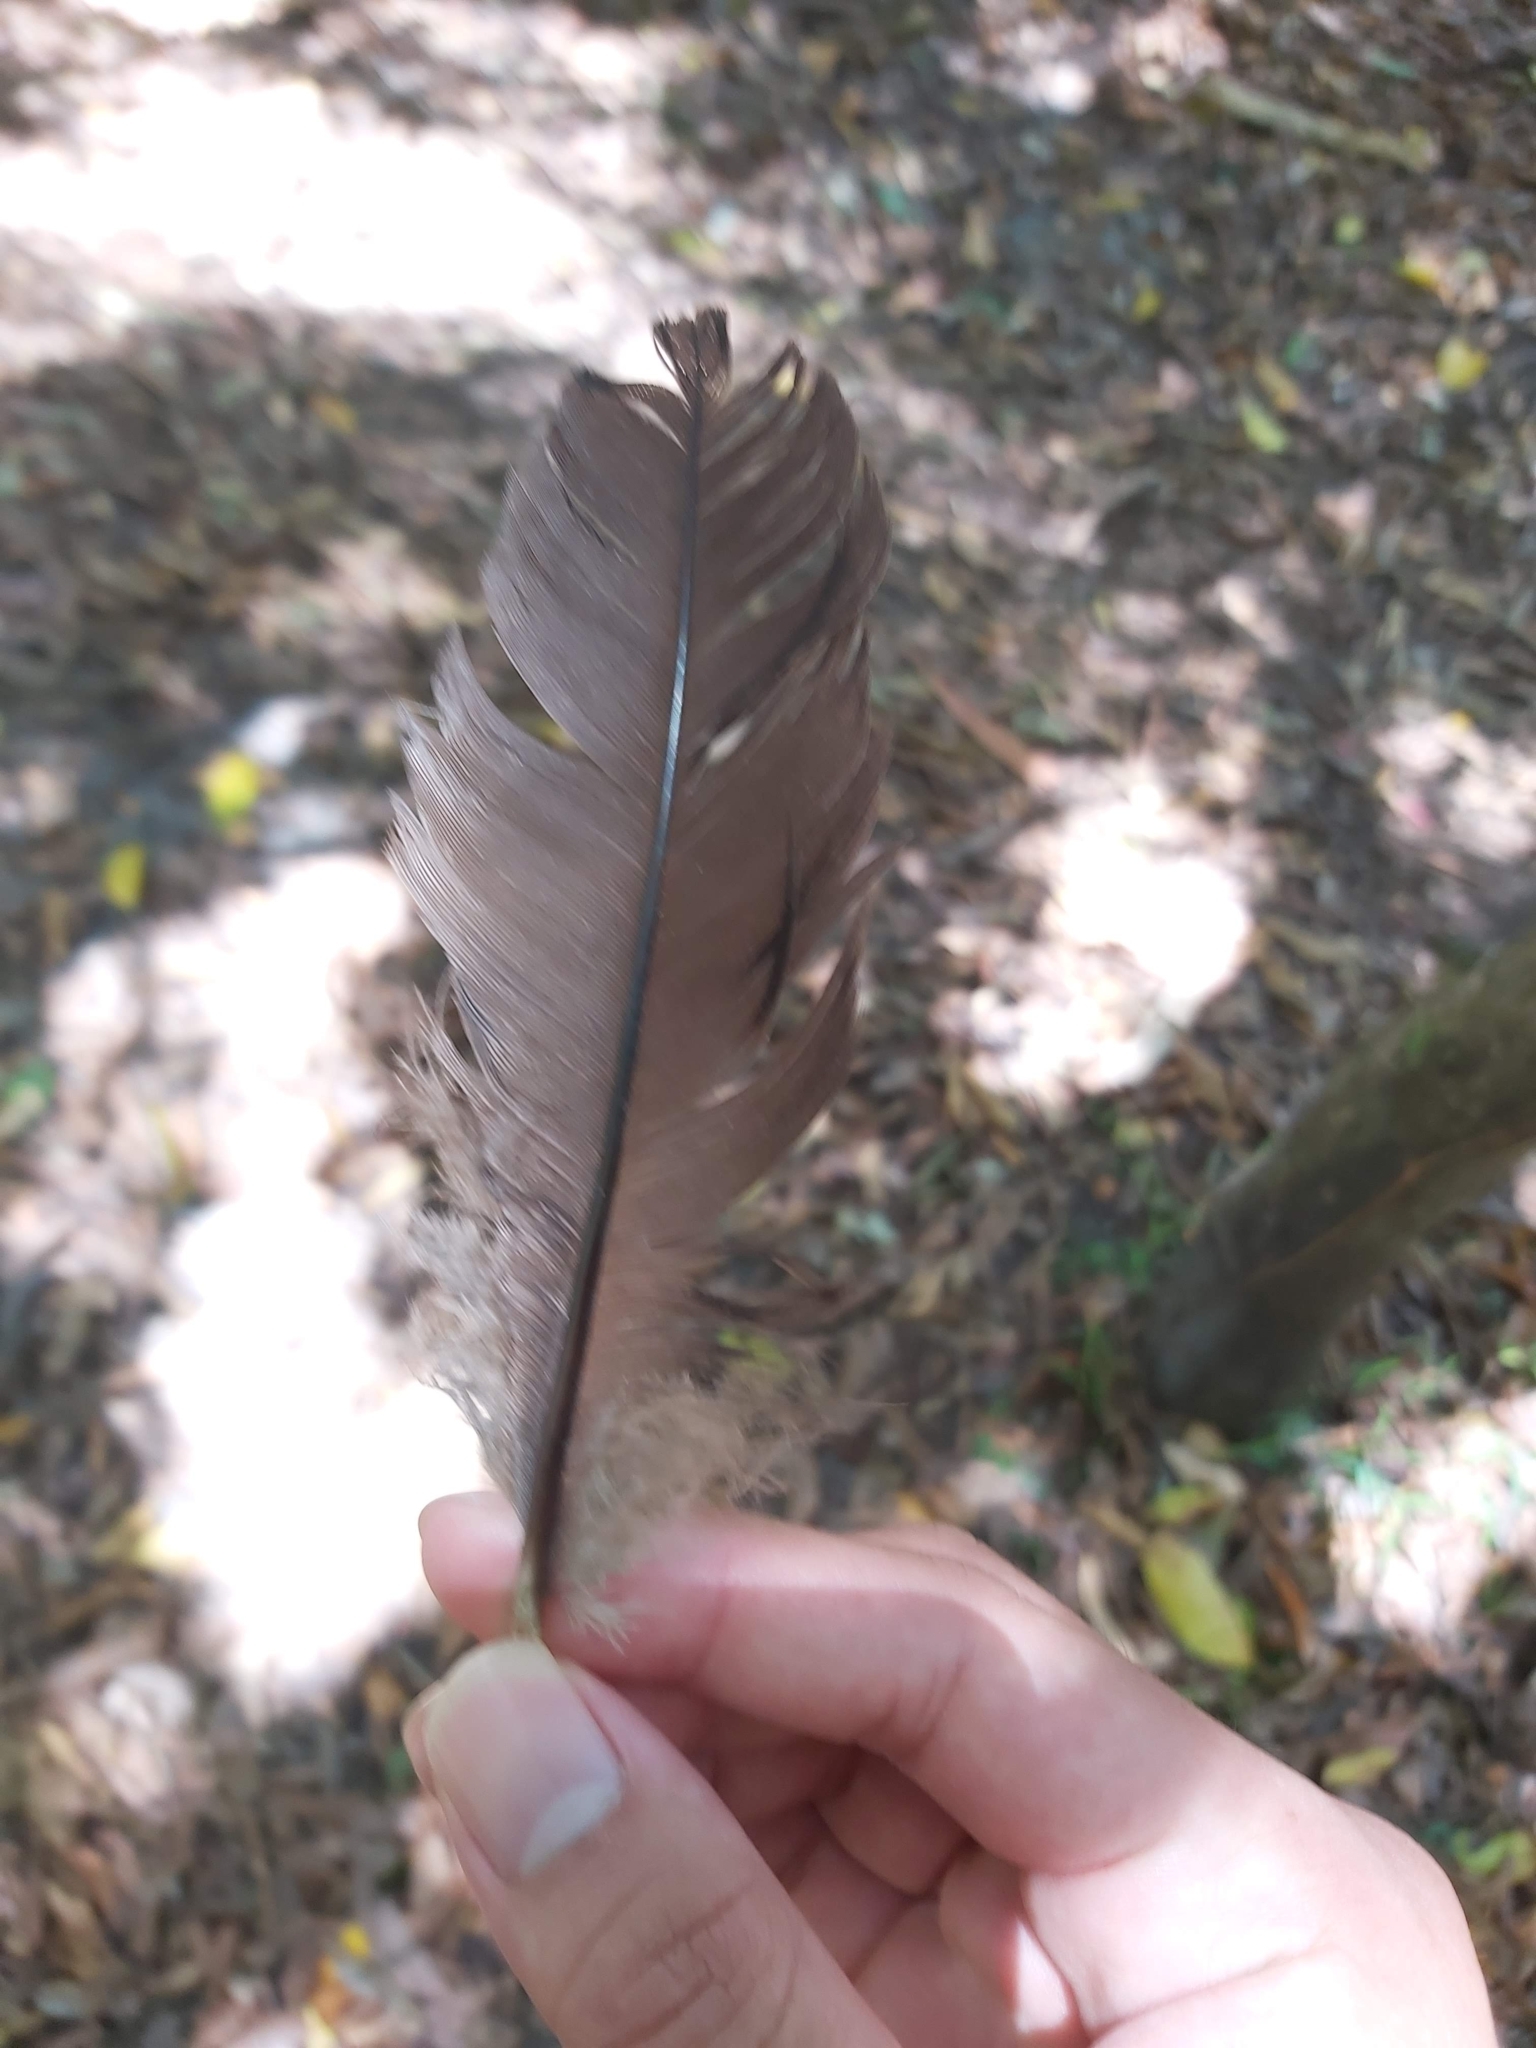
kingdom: Animalia
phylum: Chordata
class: Aves
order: Galliformes
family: Megapodiidae
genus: Alectura
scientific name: Alectura lathami
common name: Australian brushturkey
